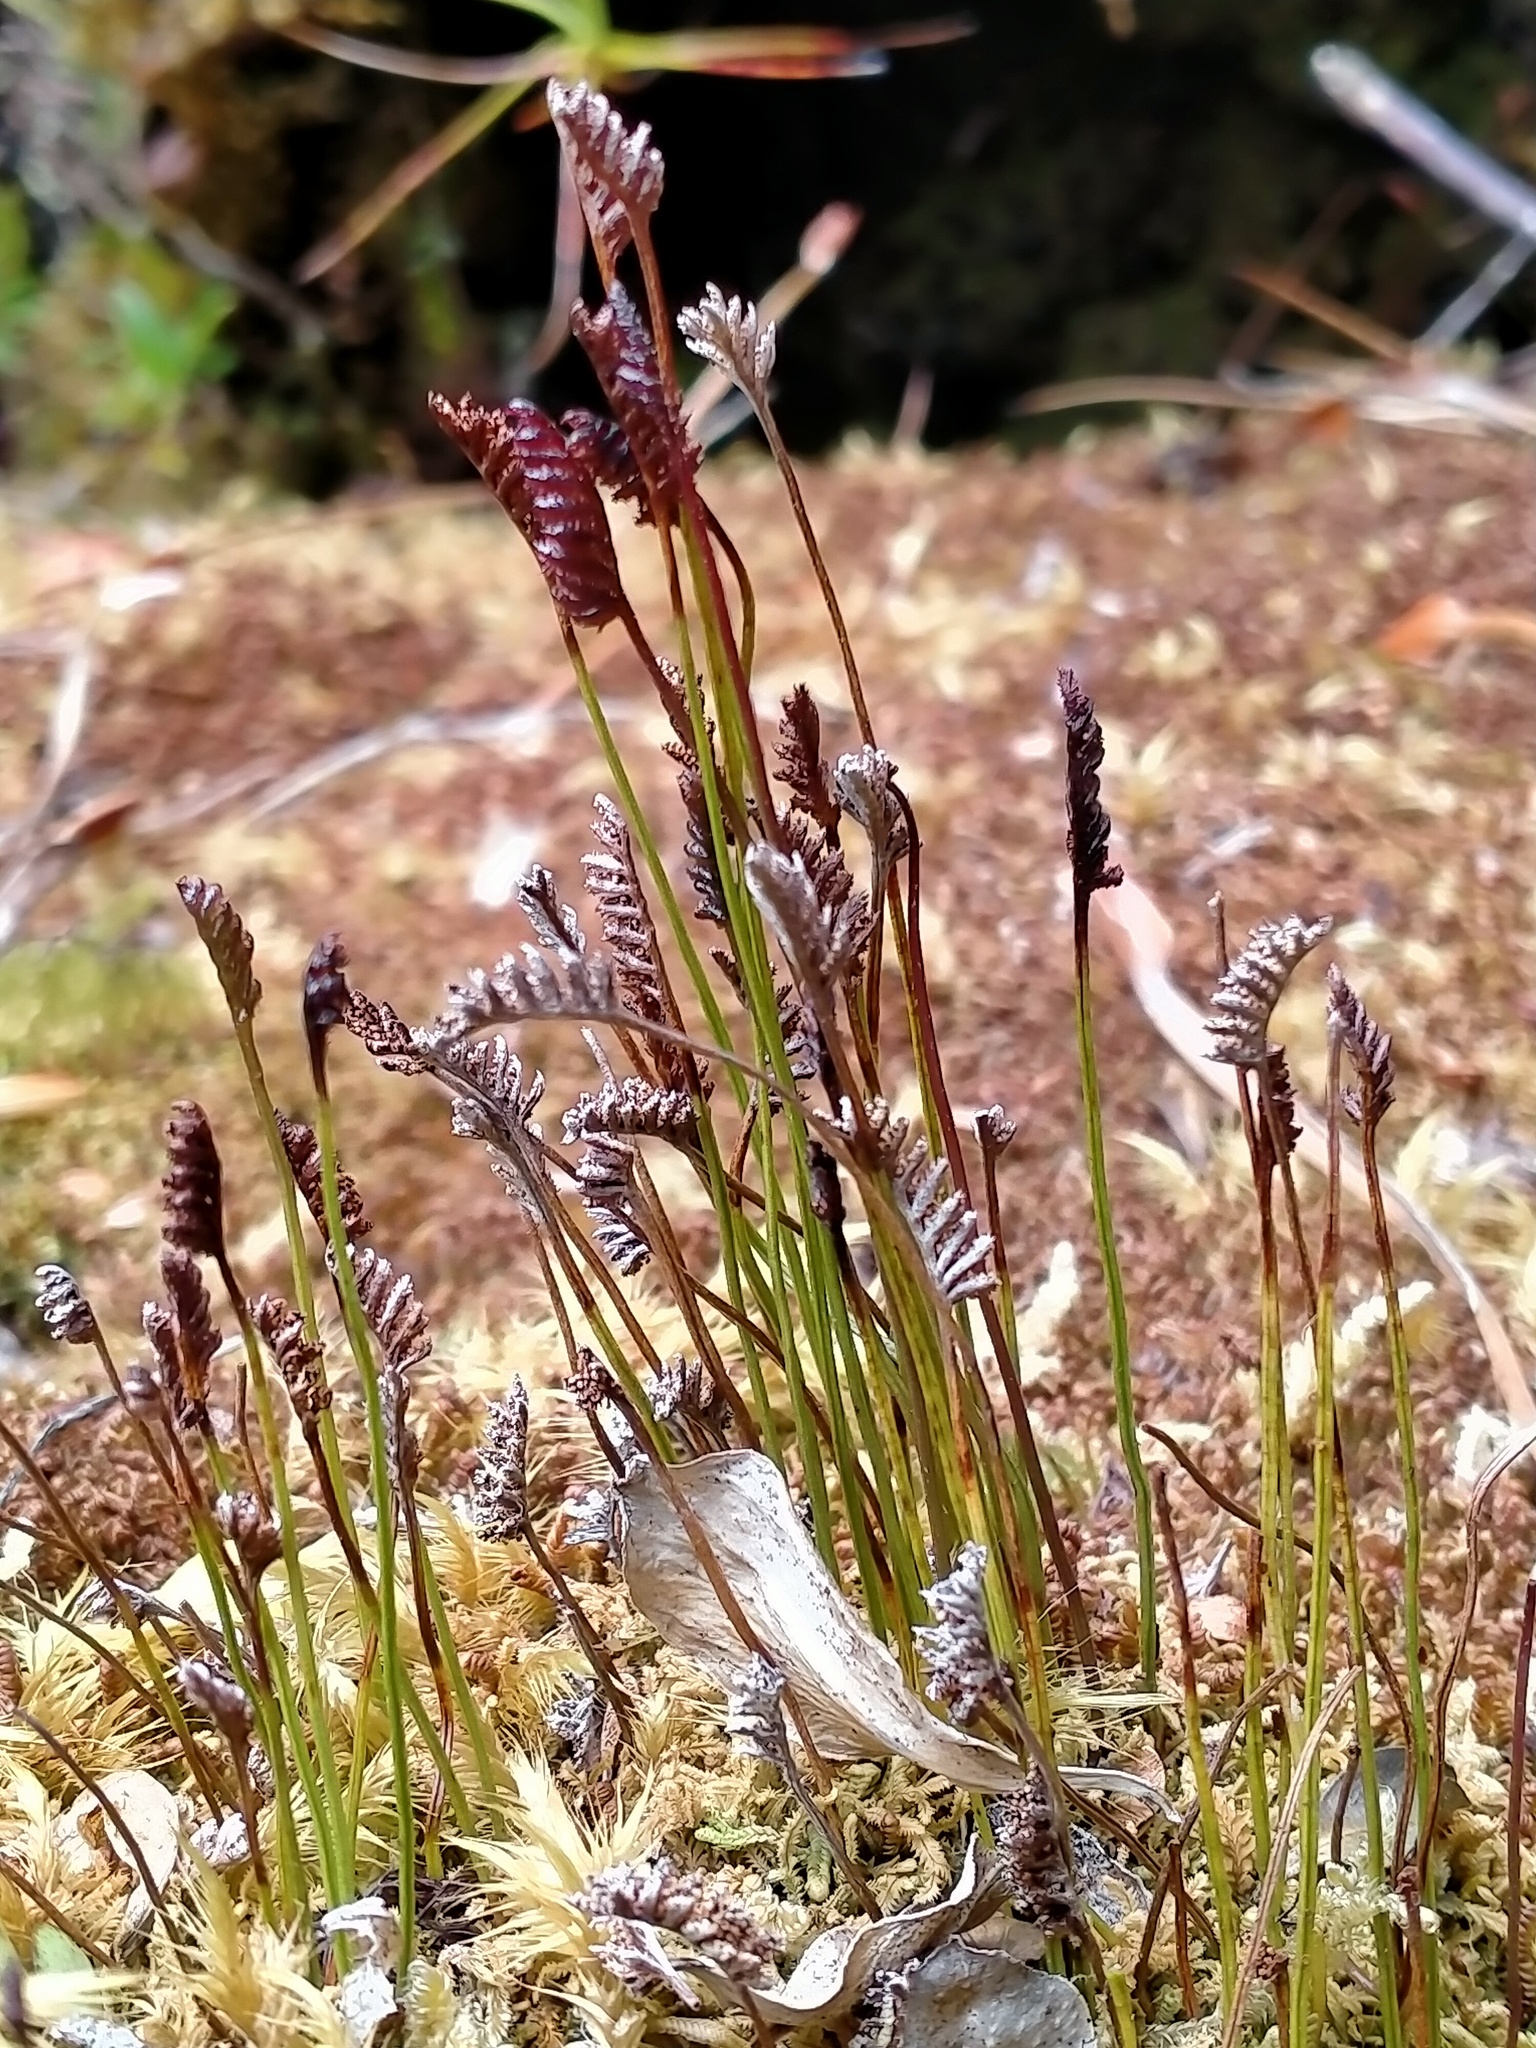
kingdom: Plantae
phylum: Tracheophyta
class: Polypodiopsida
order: Schizaeales
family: Schizaeaceae
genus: Microschizaea
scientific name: Microschizaea australis
